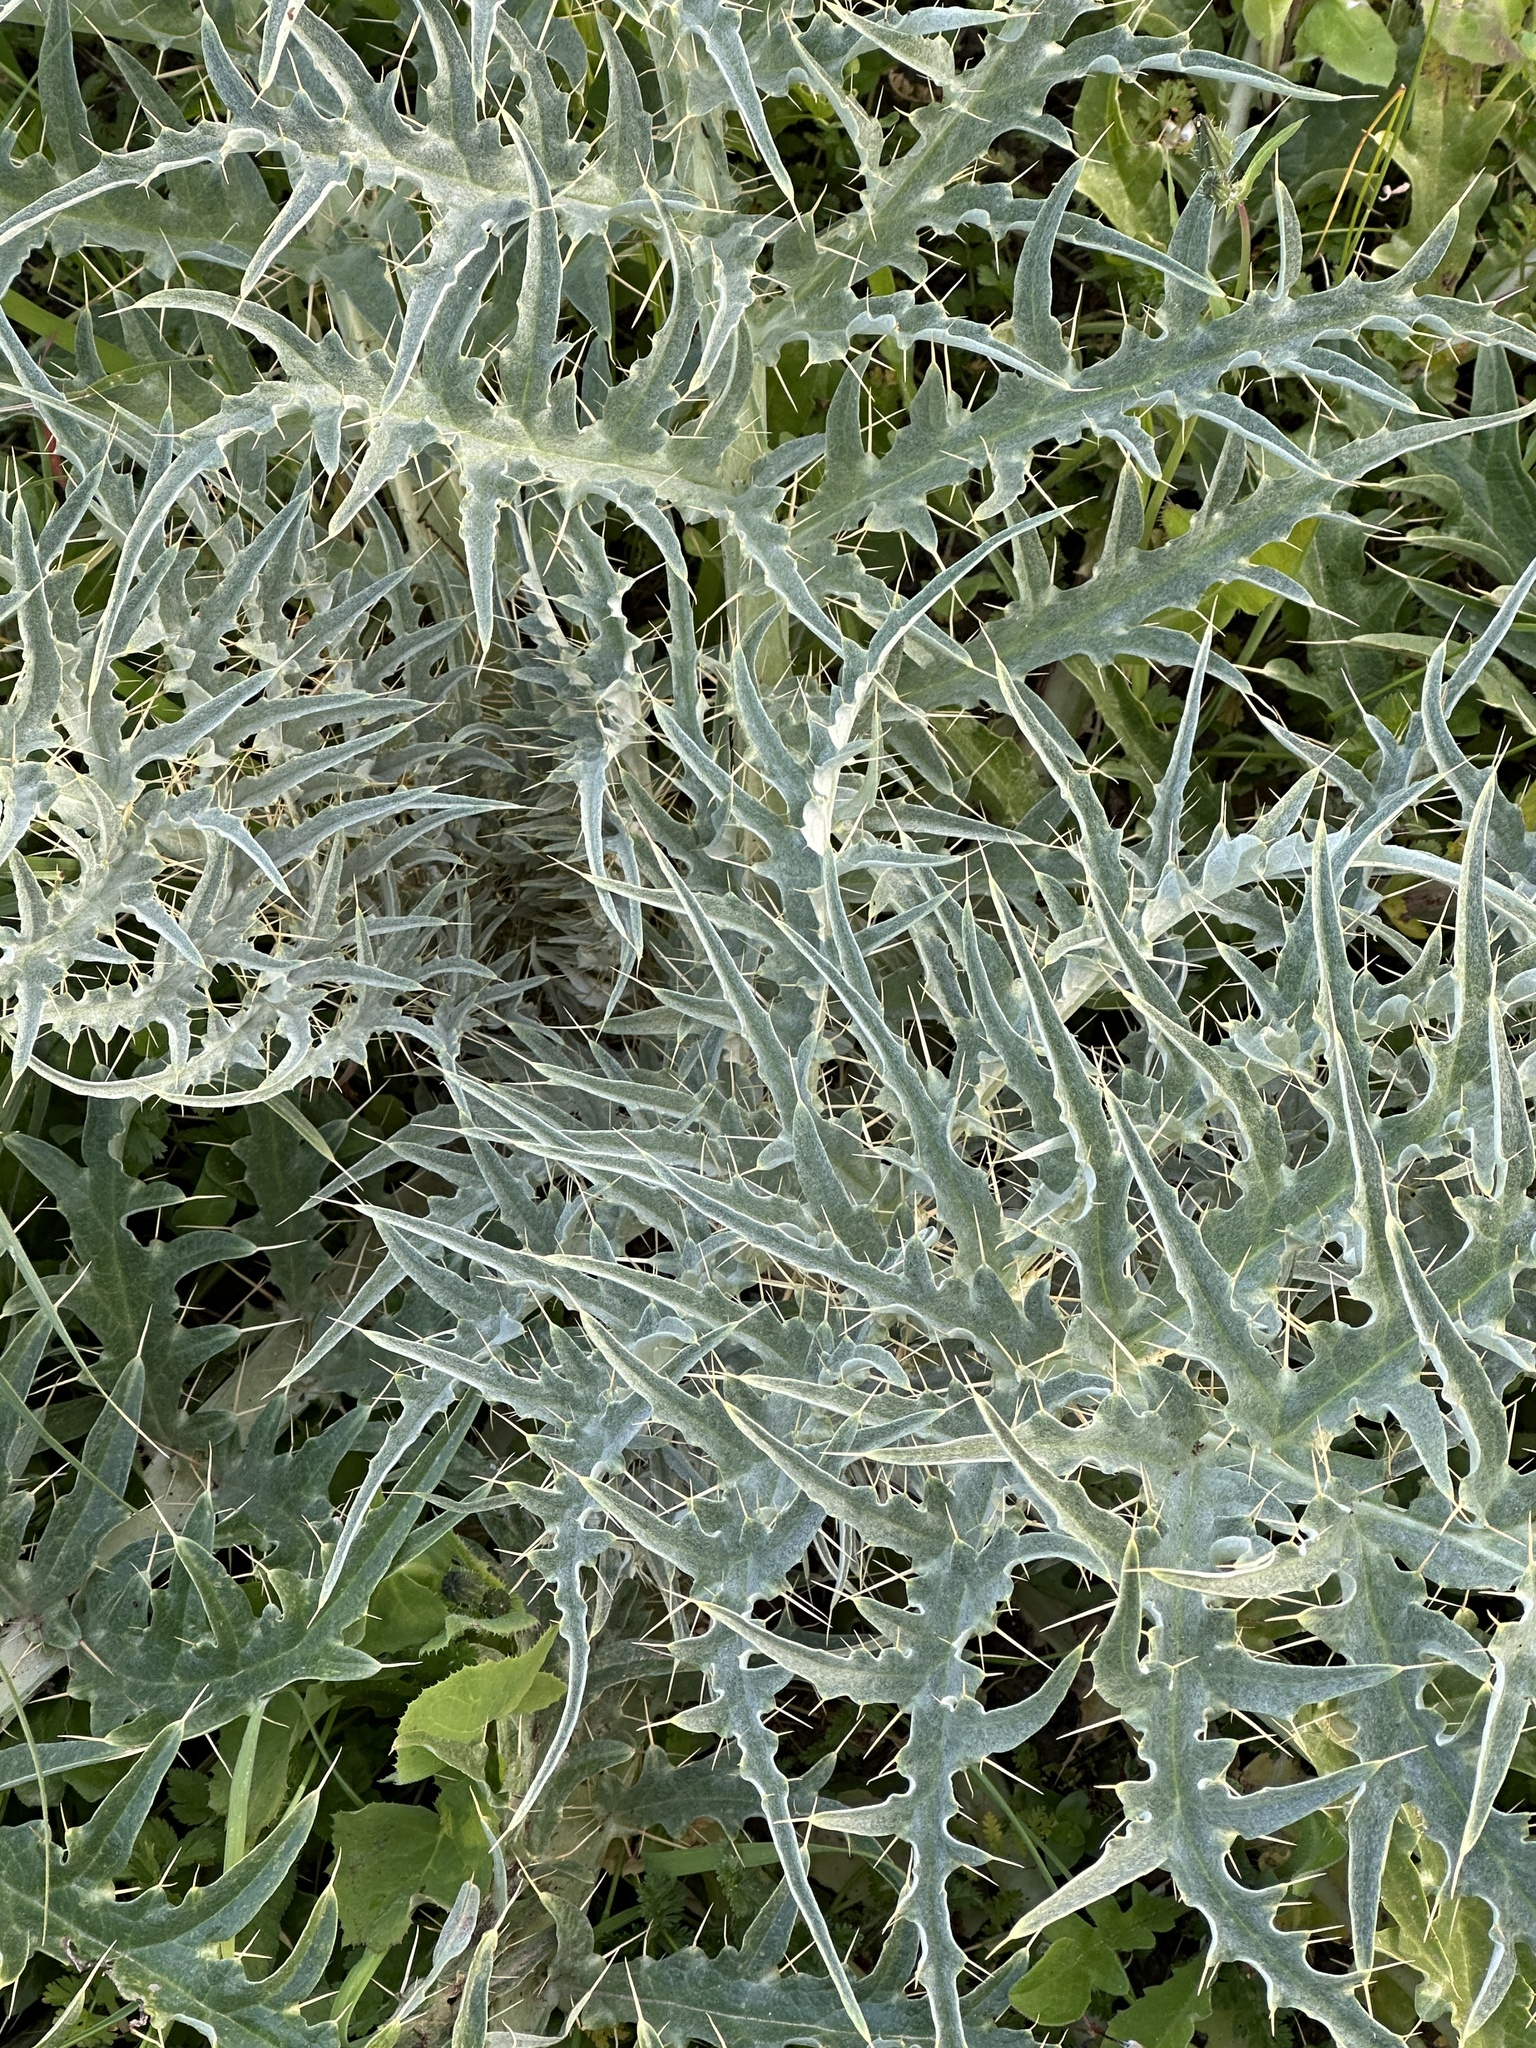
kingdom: Plantae
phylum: Tracheophyta
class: Magnoliopsida
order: Asterales
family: Asteraceae
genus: Cynara
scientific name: Cynara cardunculus
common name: Globe artichoke
